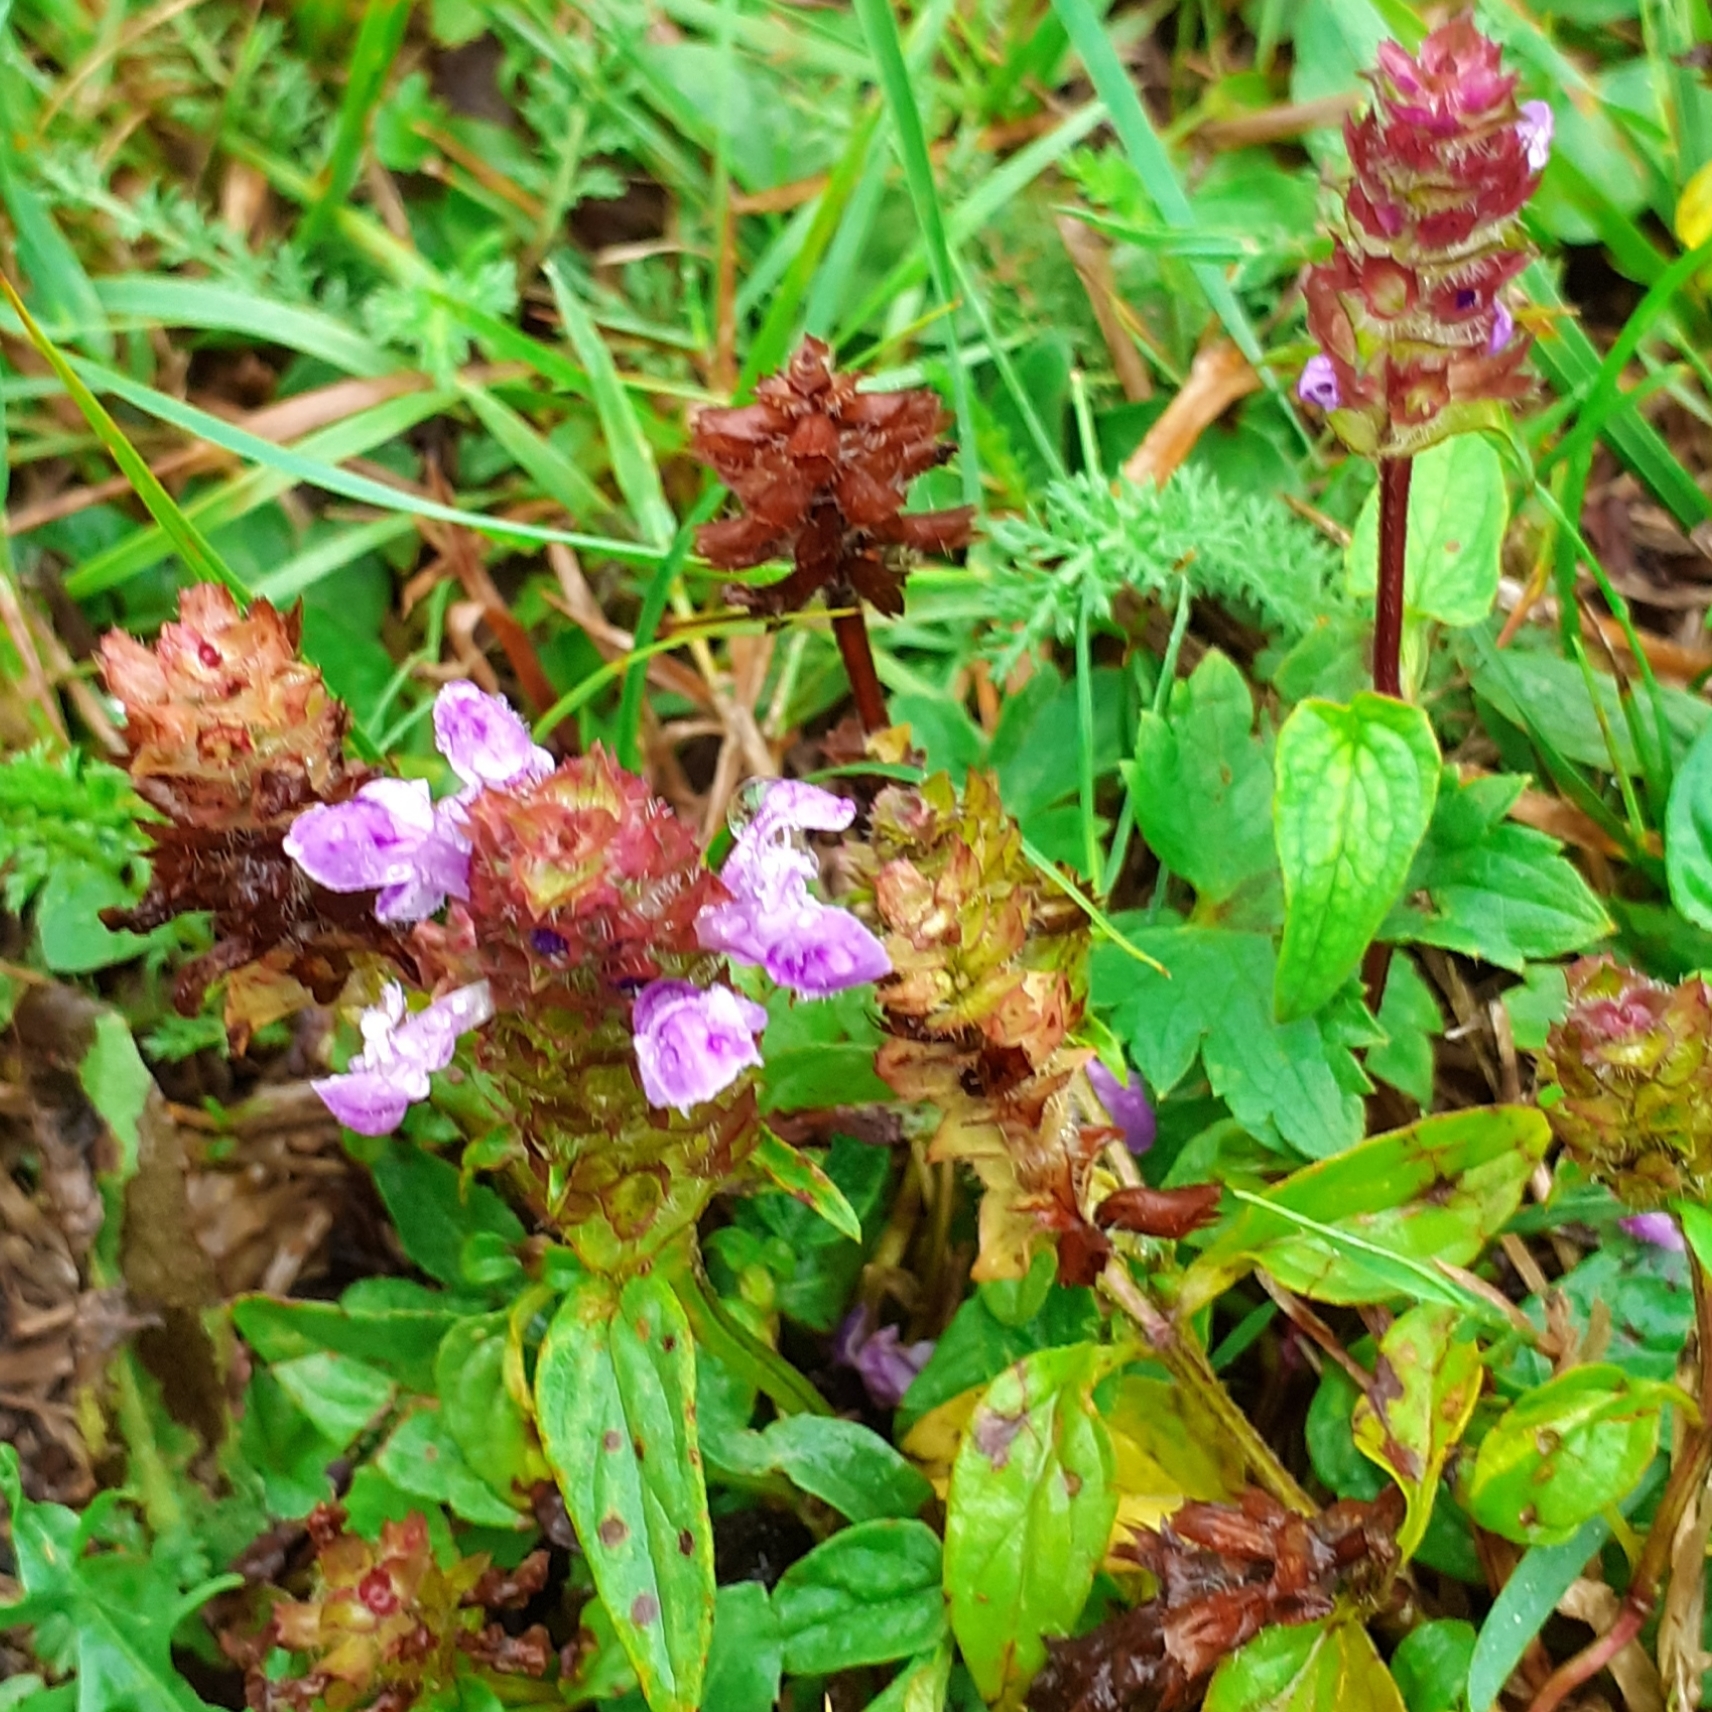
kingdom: Plantae
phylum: Tracheophyta
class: Magnoliopsida
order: Lamiales
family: Lamiaceae
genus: Prunella
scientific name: Prunella vulgaris
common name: Heal-all
